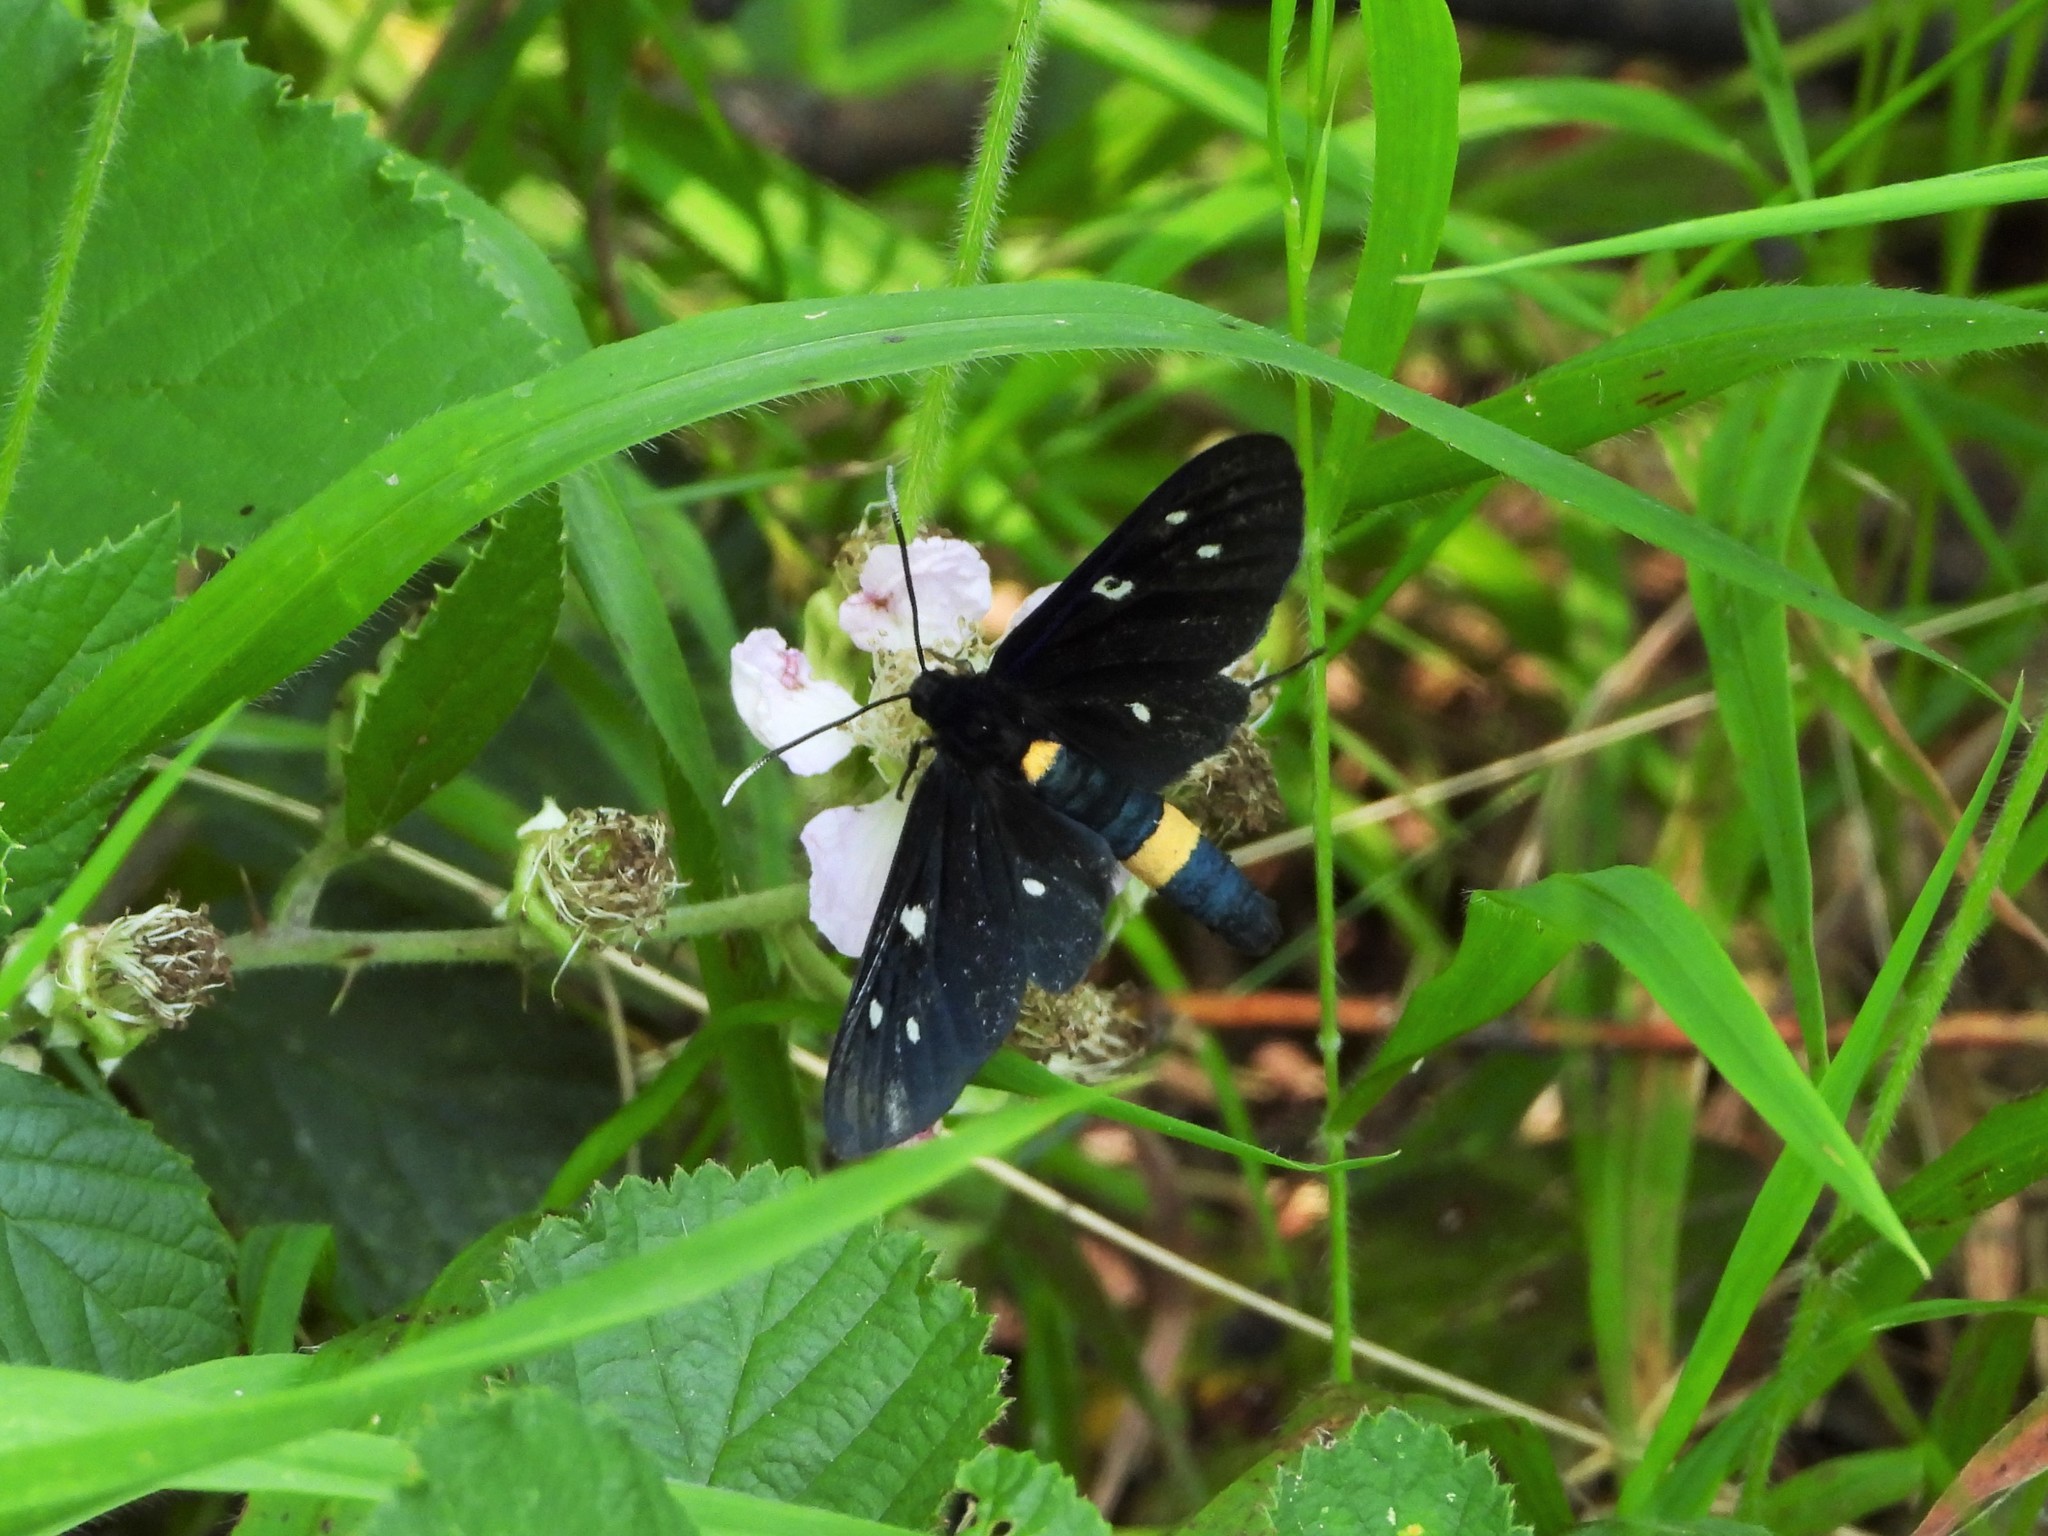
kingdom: Animalia
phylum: Arthropoda
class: Insecta
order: Lepidoptera
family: Erebidae
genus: Amata
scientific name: Amata phegea
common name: Nine-spotted
